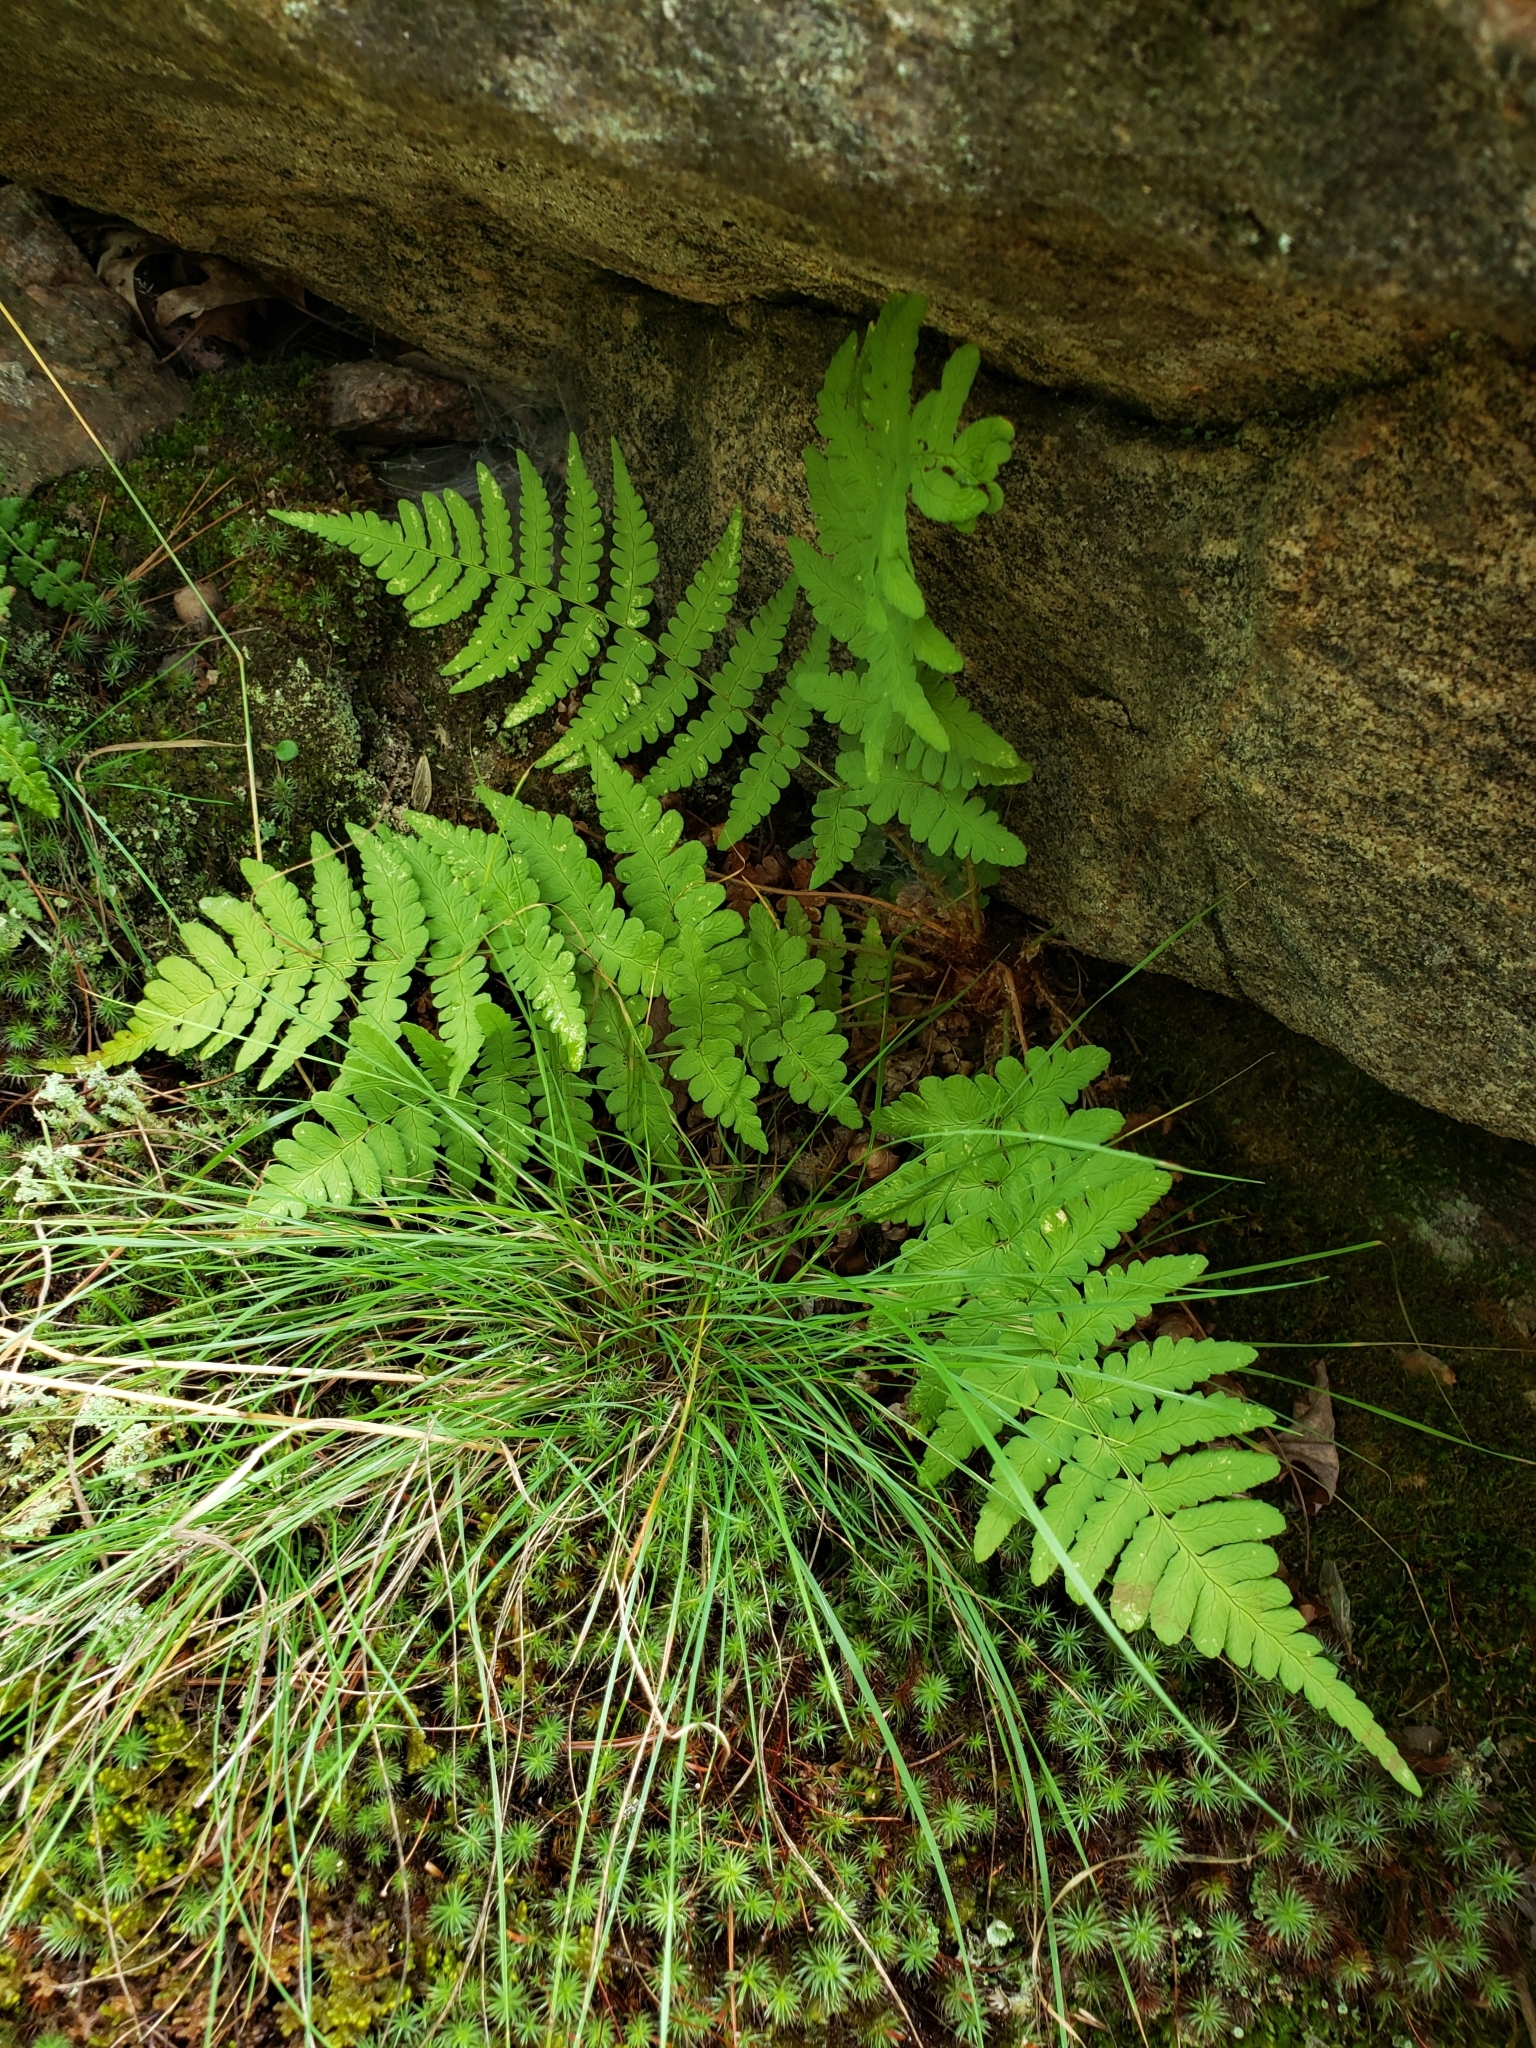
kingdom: Plantae
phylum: Tracheophyta
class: Polypodiopsida
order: Polypodiales
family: Dryopteridaceae
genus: Dryopteris
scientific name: Dryopteris marginalis
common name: Marginal wood fern
